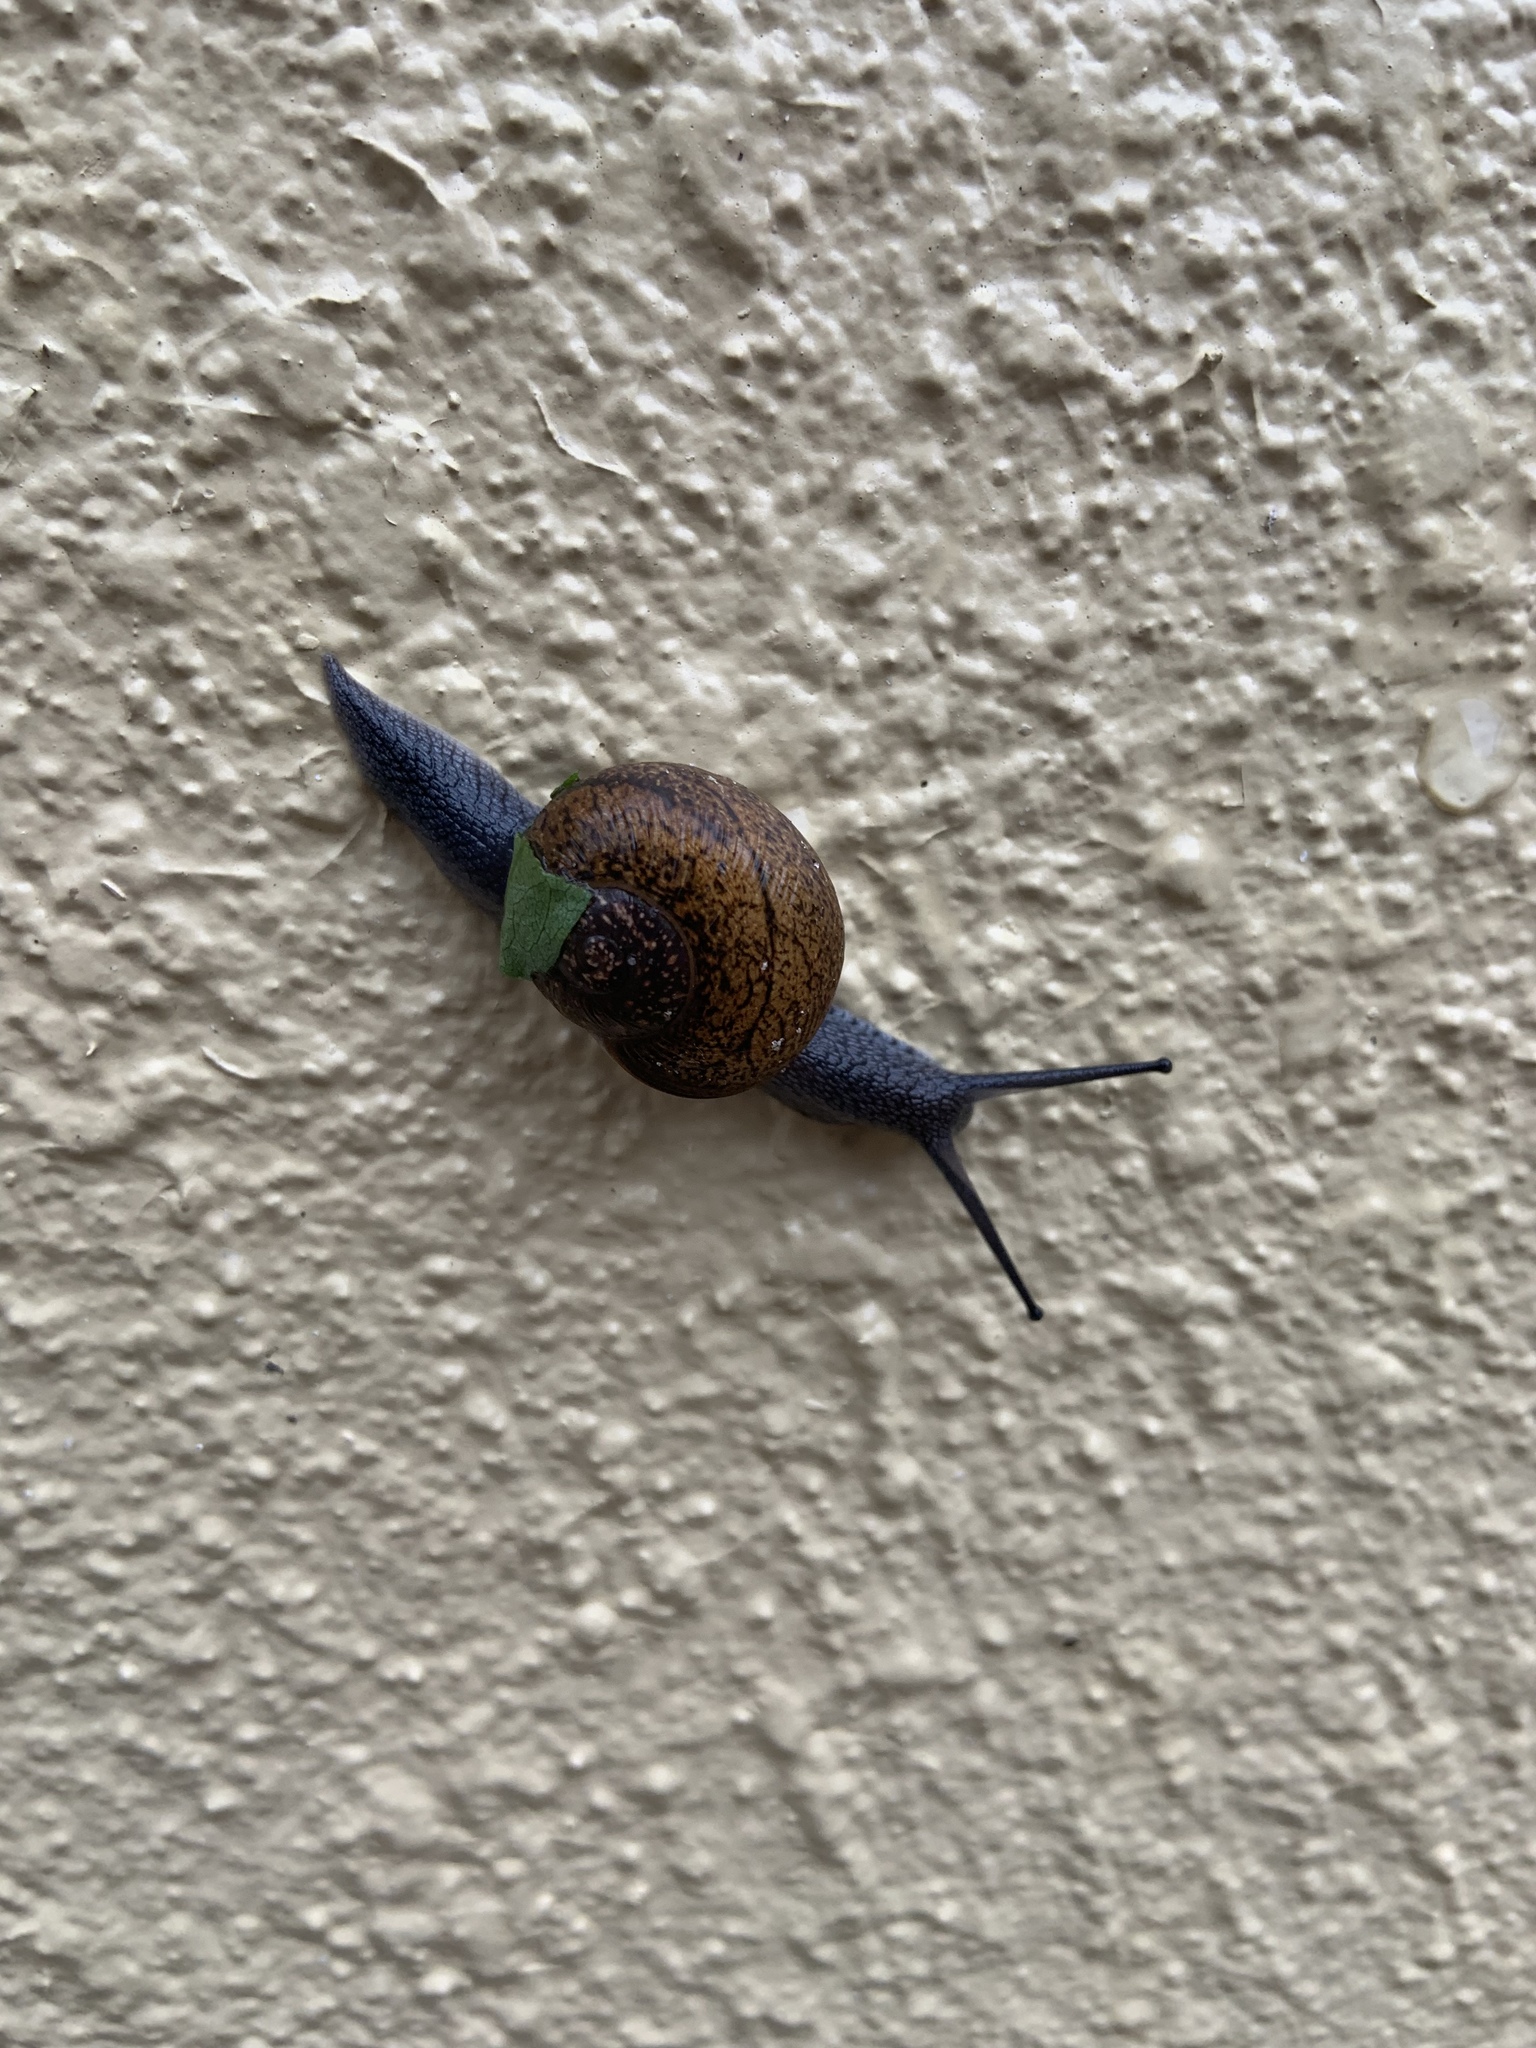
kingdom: Animalia
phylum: Mollusca
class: Gastropoda
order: Stylommatophora
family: Zachrysiidae
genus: Zachrysia
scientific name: Zachrysia provisoria
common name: Garden zachrysia
